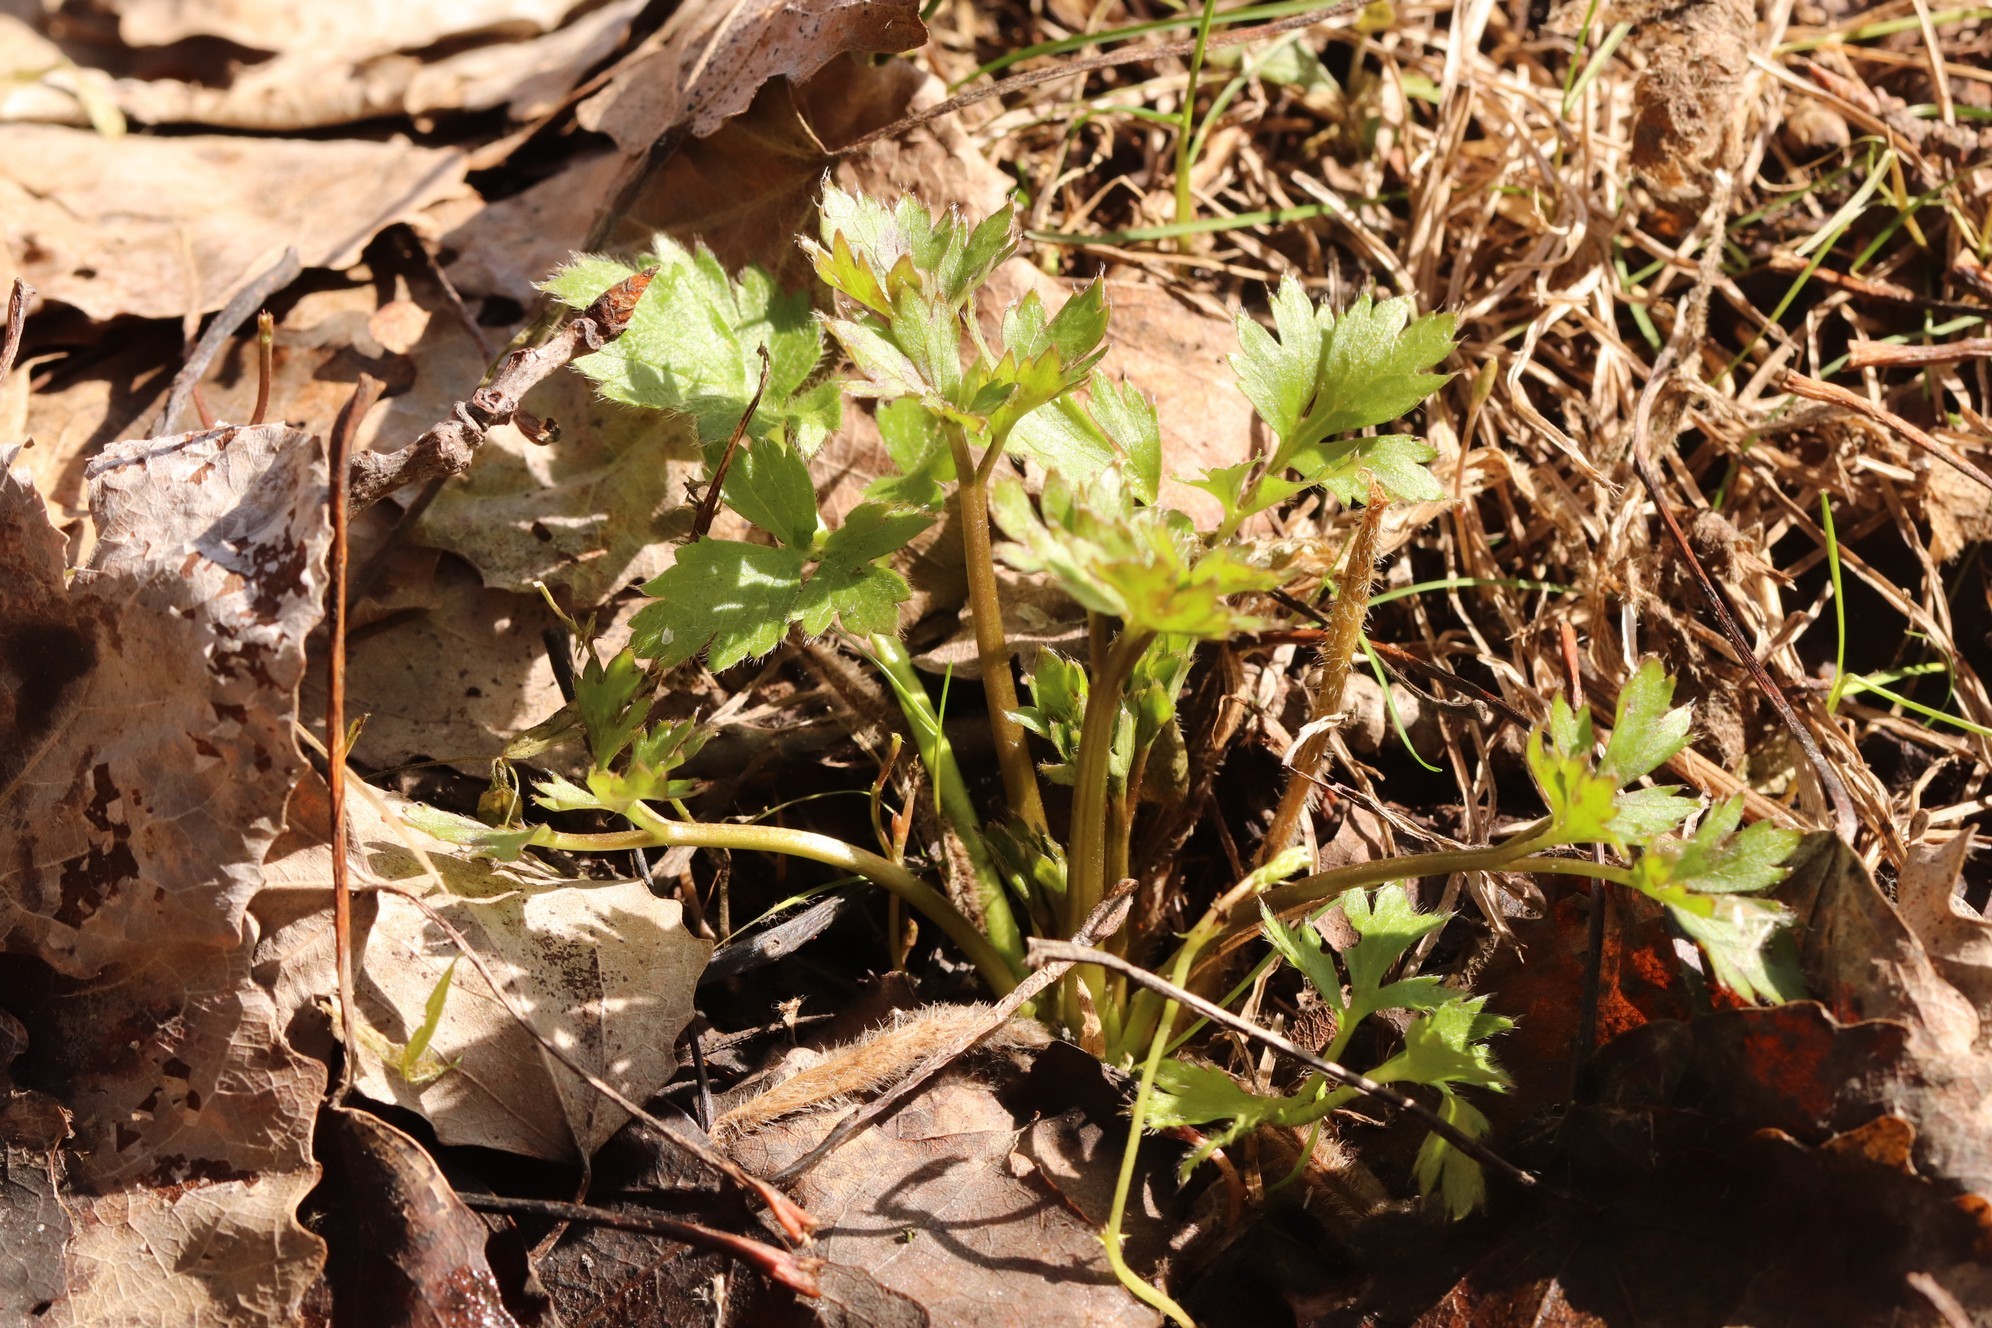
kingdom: Plantae
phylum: Tracheophyta
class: Magnoliopsida
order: Ranunculales
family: Ranunculaceae
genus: Ranunculus
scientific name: Ranunculus repens
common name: Creeping buttercup
